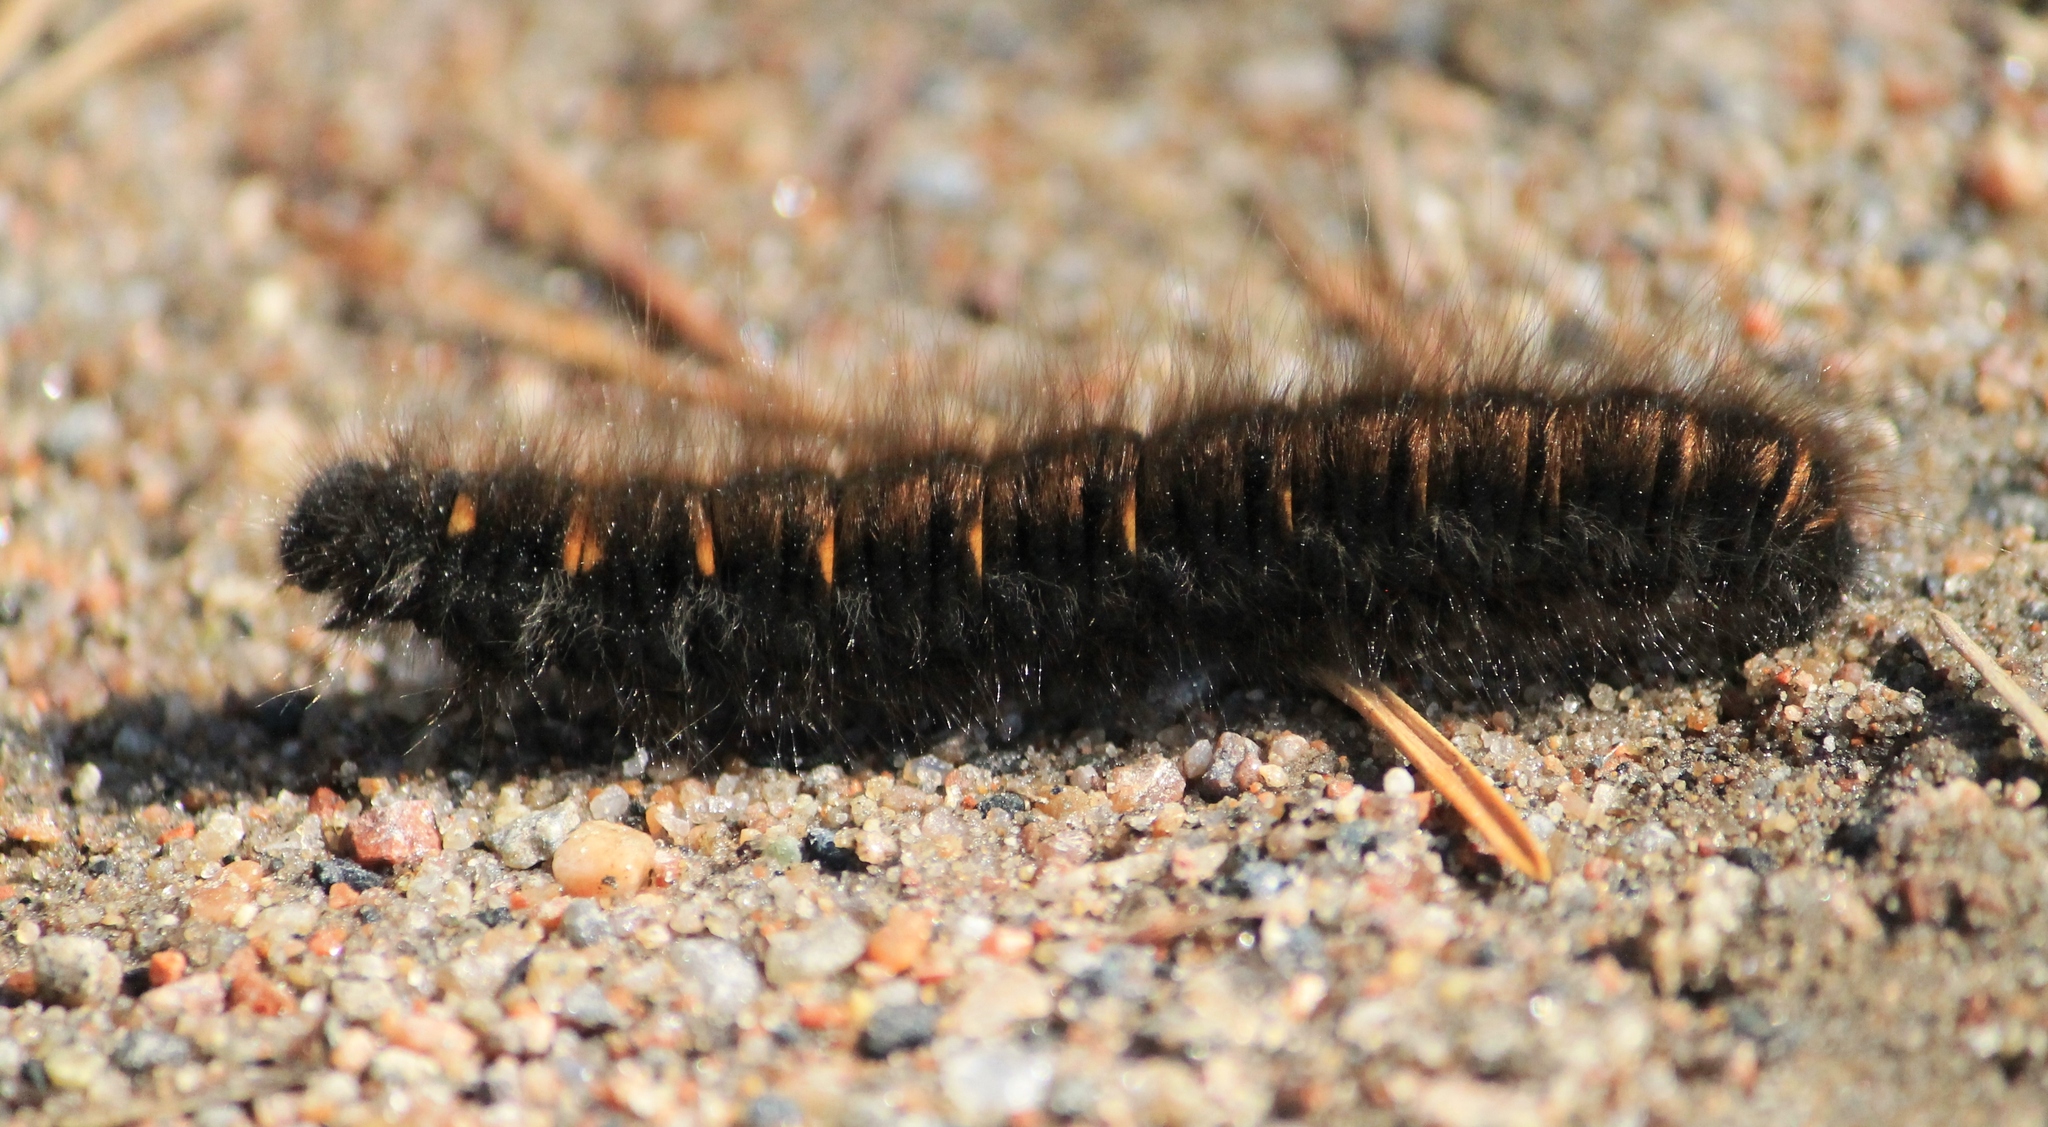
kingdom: Animalia
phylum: Arthropoda
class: Insecta
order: Lepidoptera
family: Lasiocampidae
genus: Macrothylacia
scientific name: Macrothylacia rubi
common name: Fox moth
